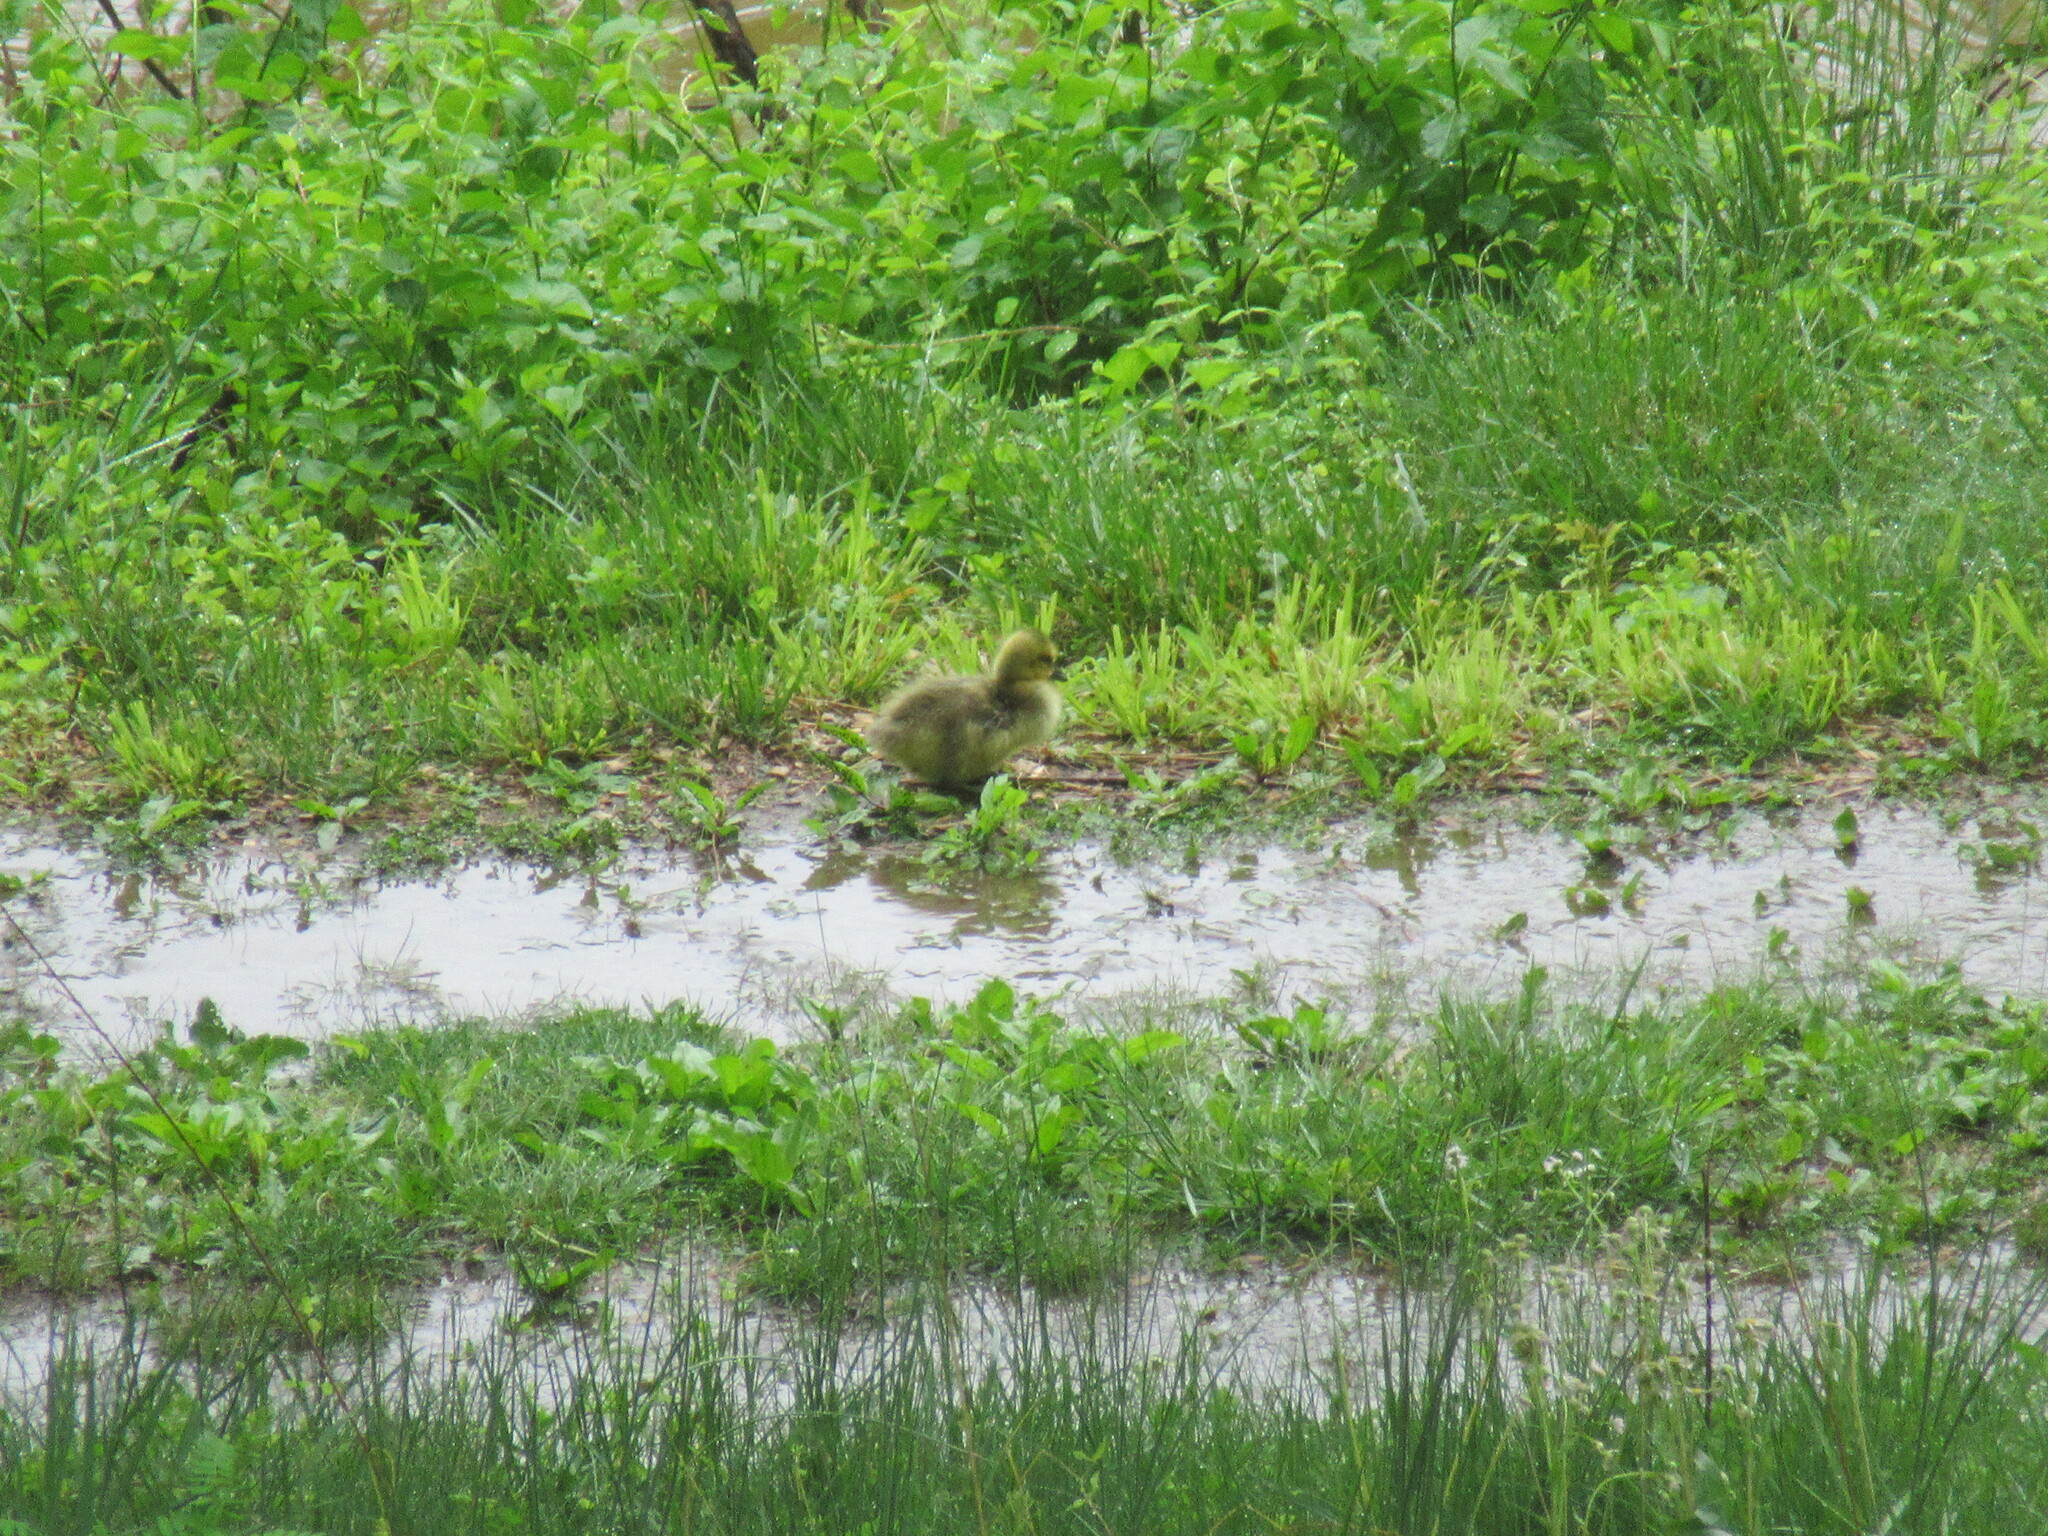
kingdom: Animalia
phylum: Chordata
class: Aves
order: Anseriformes
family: Anatidae
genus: Branta
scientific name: Branta canadensis
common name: Canada goose
